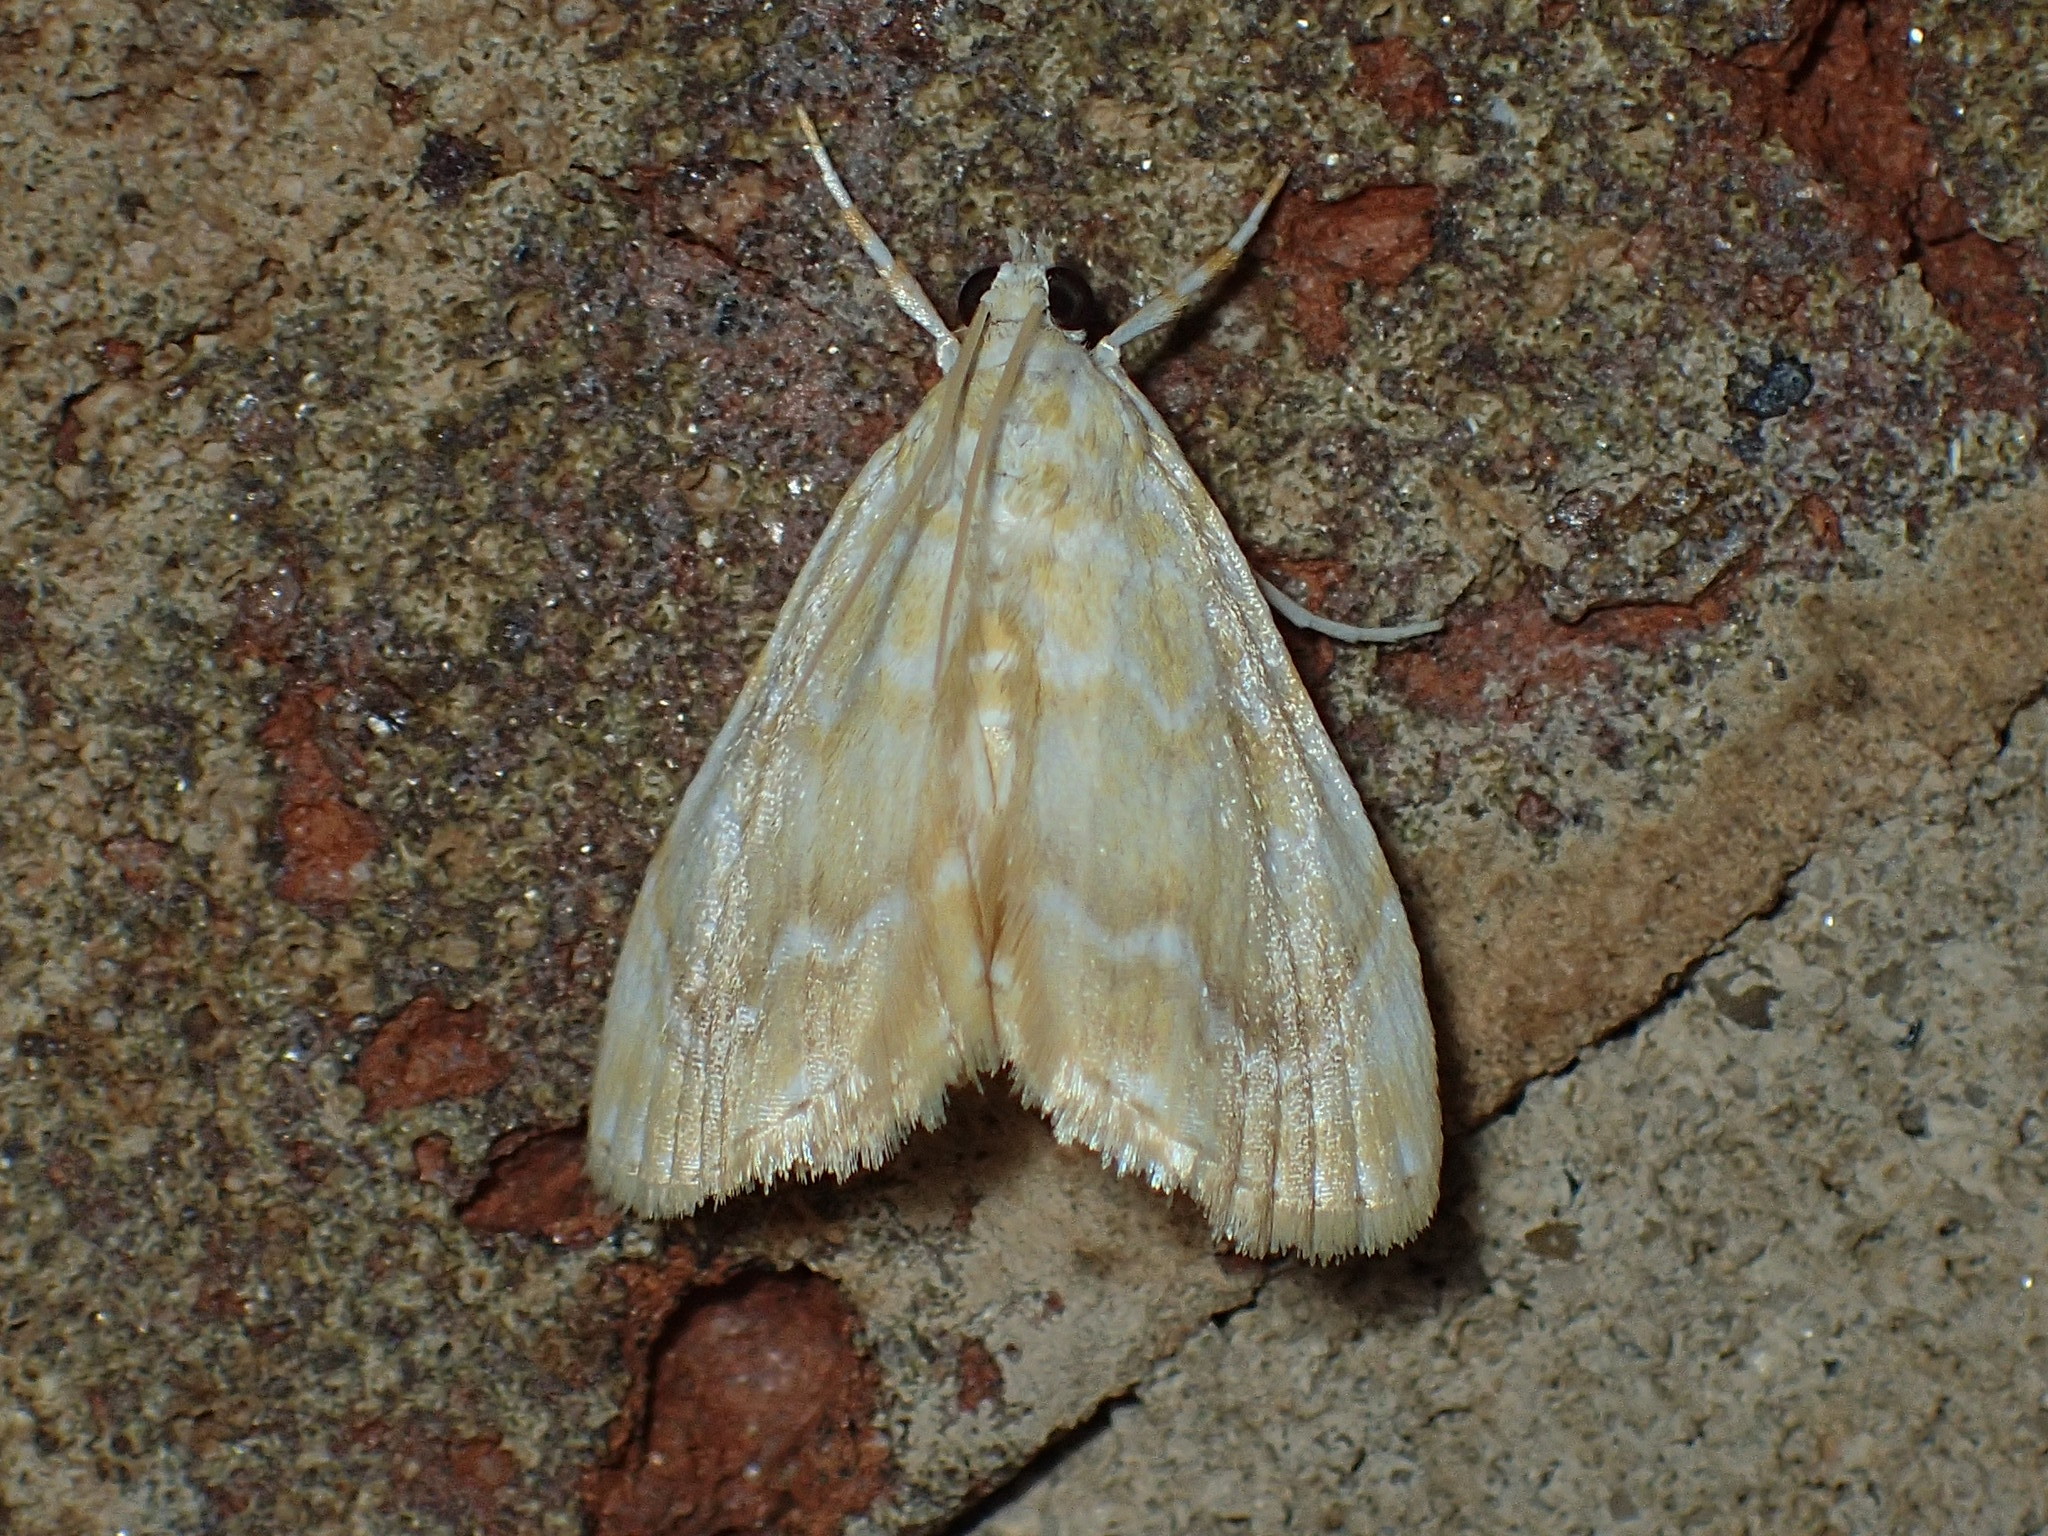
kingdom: Animalia
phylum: Arthropoda
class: Insecta
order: Lepidoptera
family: Crambidae
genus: Glaphyria
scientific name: Glaphyria glaphyralis
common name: Common glaphyria moth
